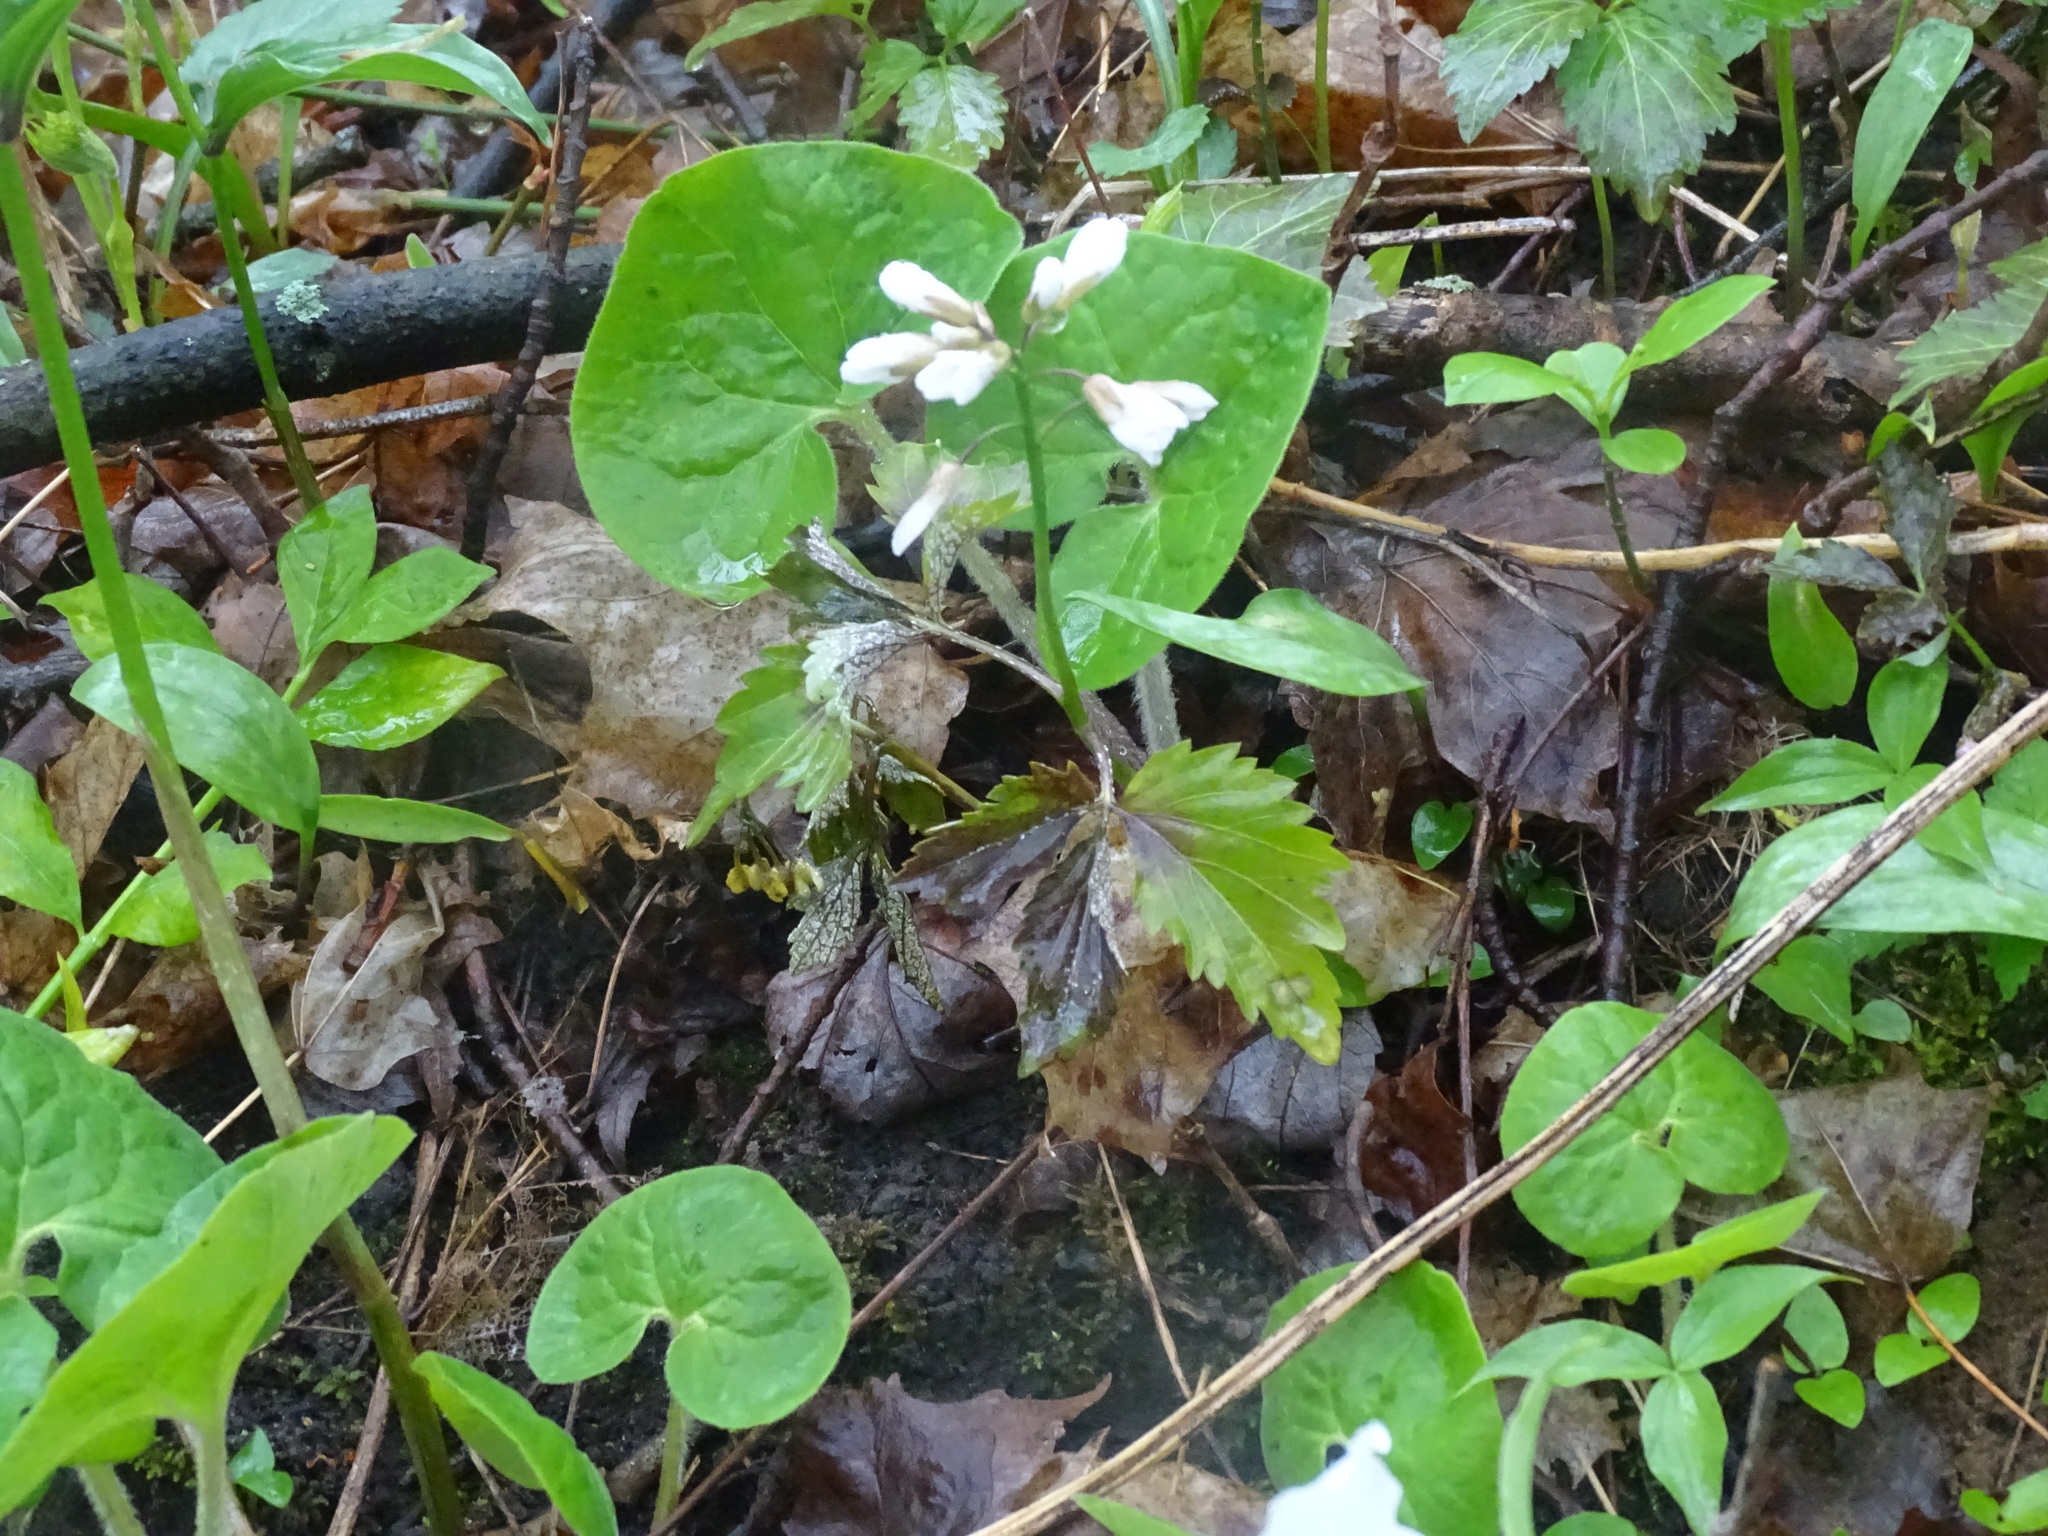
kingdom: Plantae
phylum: Tracheophyta
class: Magnoliopsida
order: Brassicales
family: Brassicaceae
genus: Cardamine
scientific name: Cardamine diphylla
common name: Broad-leaved toothwort
